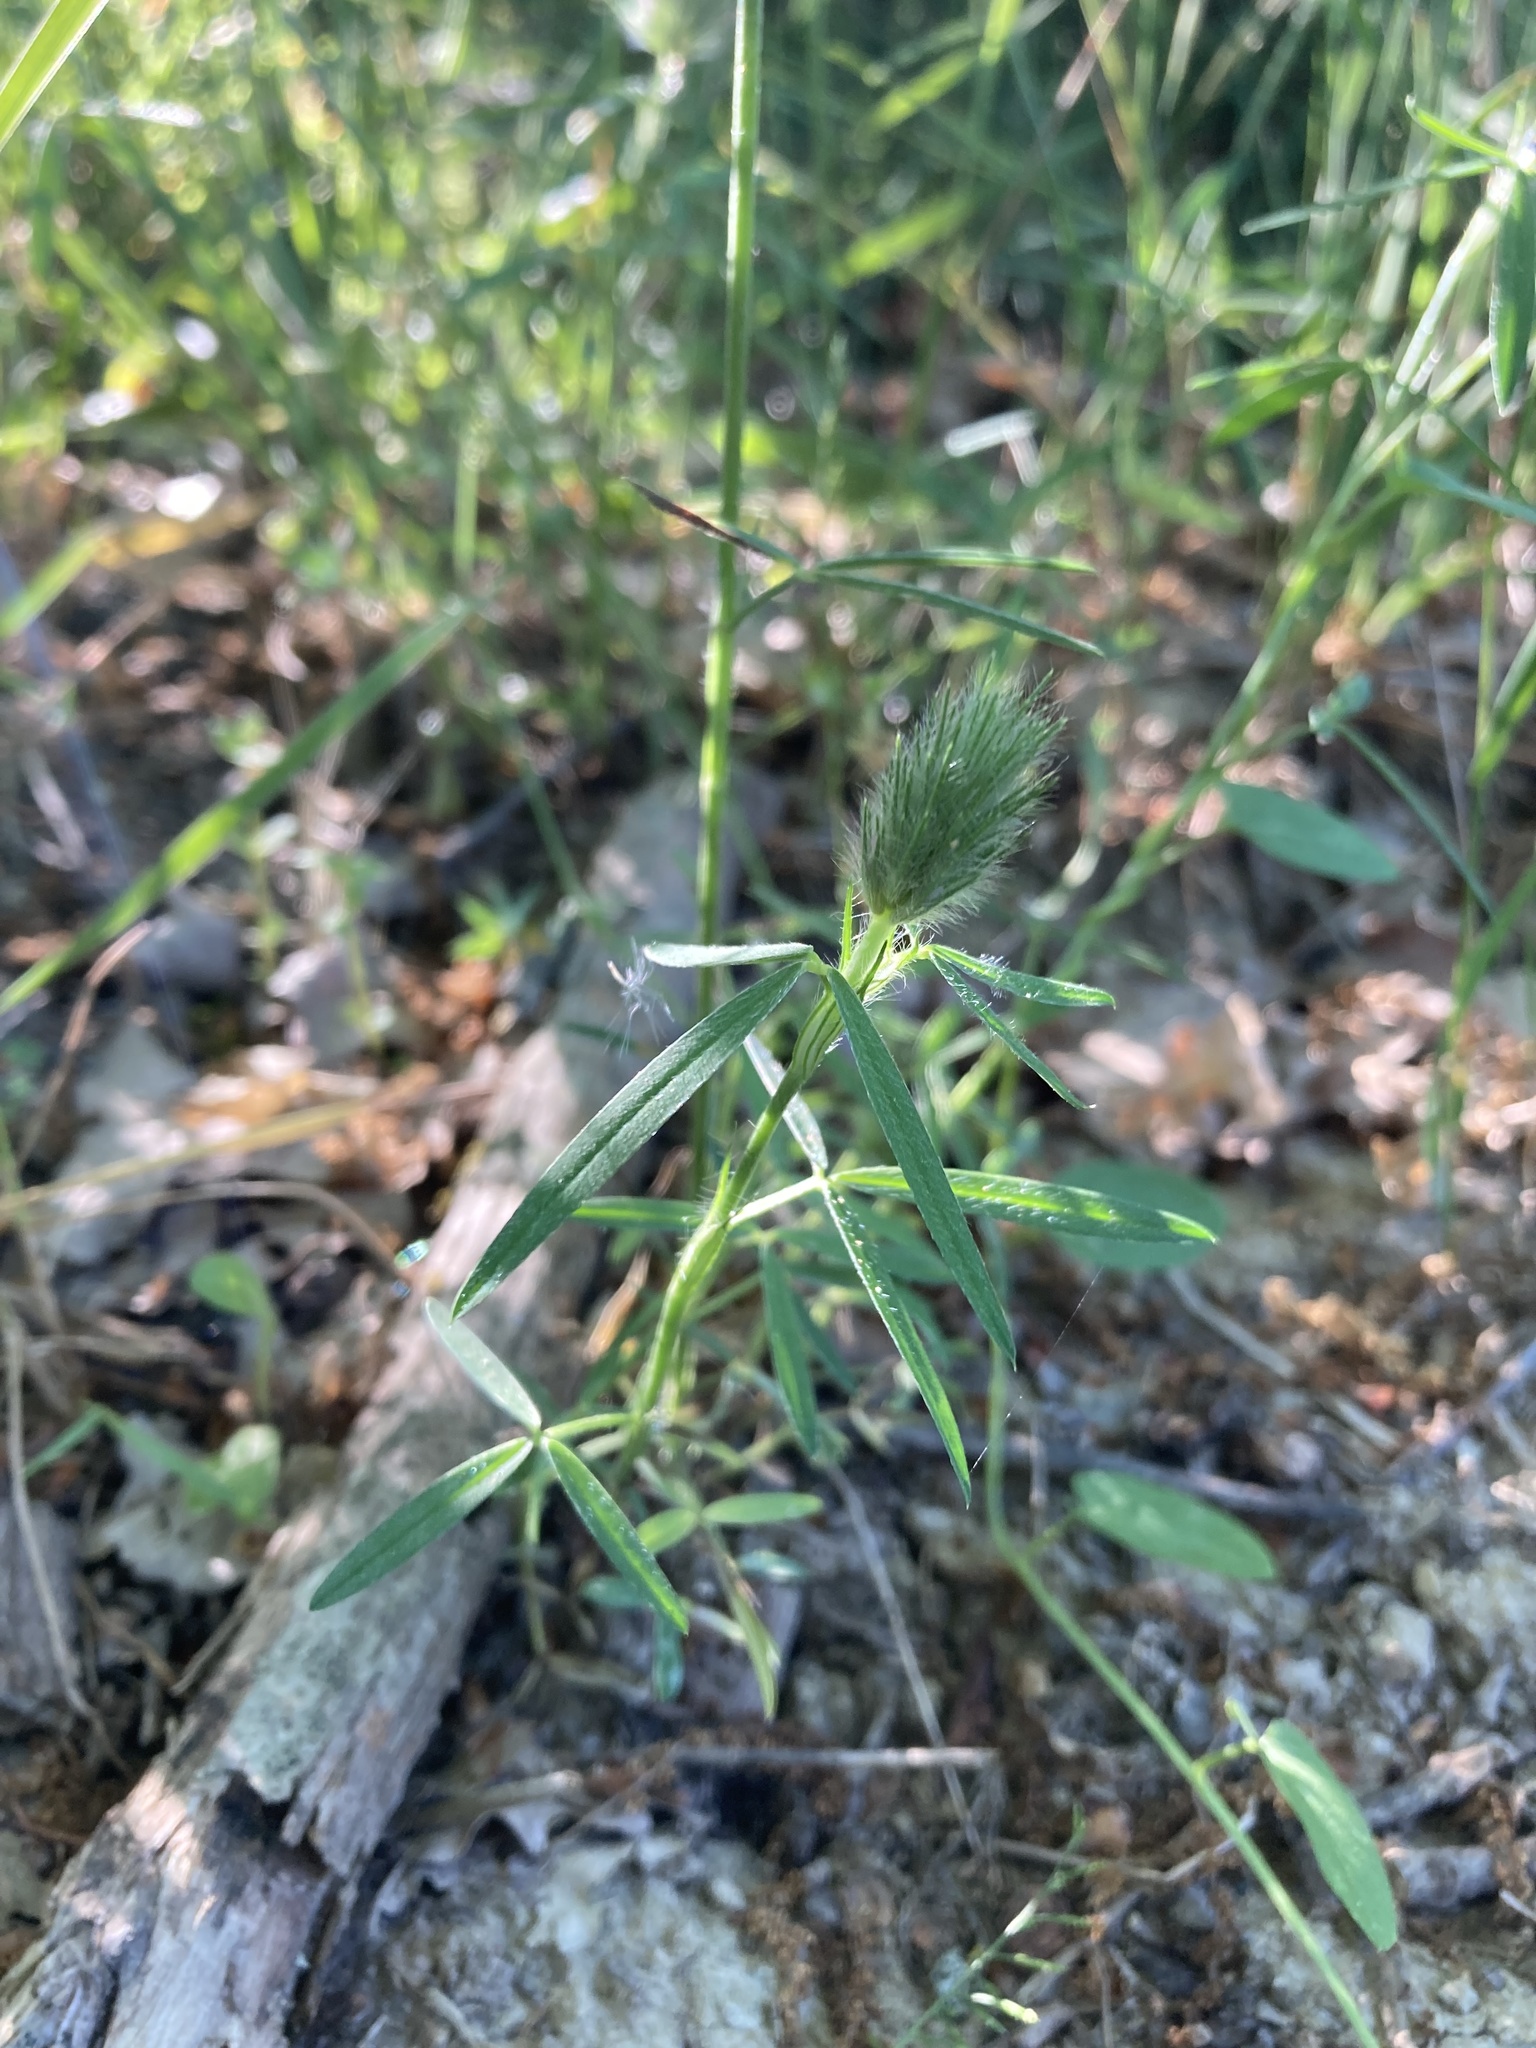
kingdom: Plantae
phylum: Tracheophyta
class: Magnoliopsida
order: Fabales
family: Fabaceae
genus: Trifolium
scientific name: Trifolium angustifolium
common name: Narrow clover
